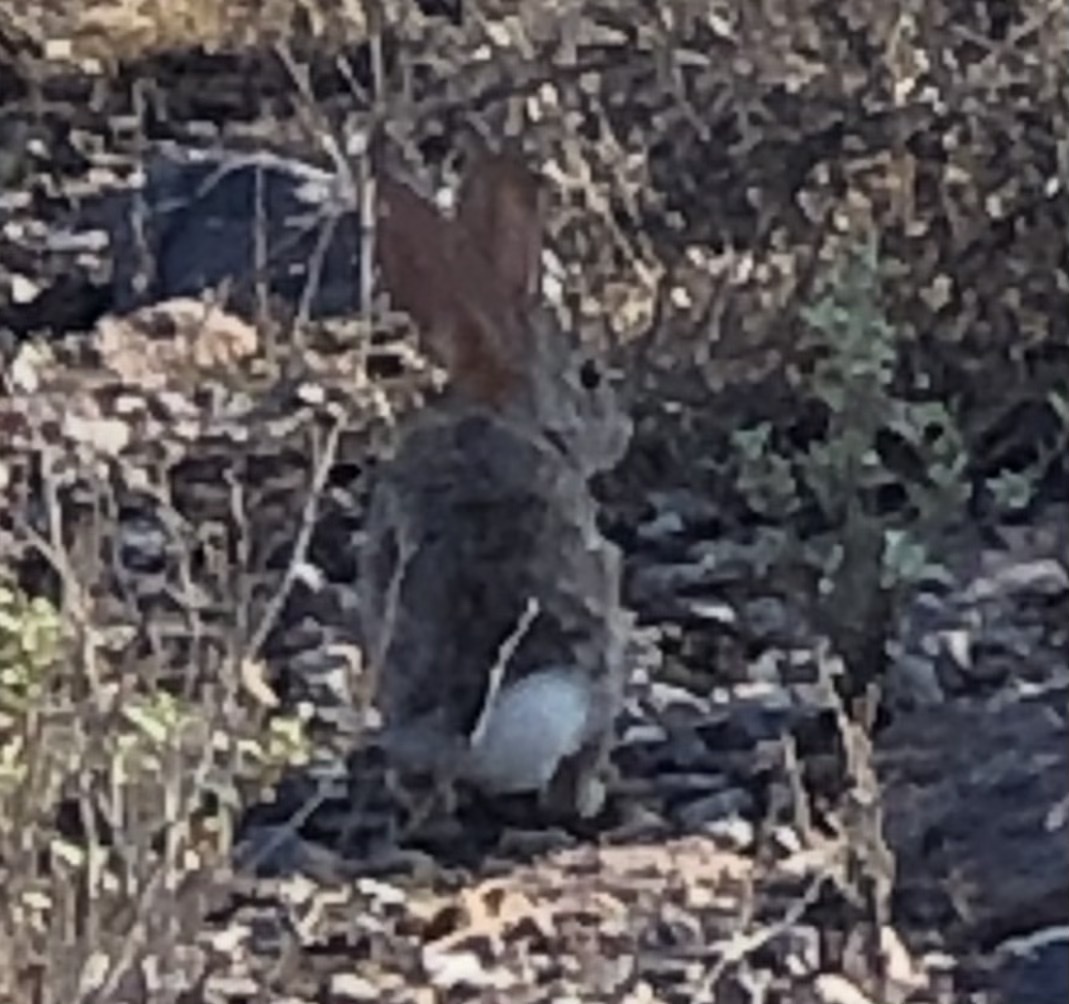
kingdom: Animalia
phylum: Chordata
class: Mammalia
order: Lagomorpha
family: Leporidae
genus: Sylvilagus
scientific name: Sylvilagus audubonii
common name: Desert cottontail
